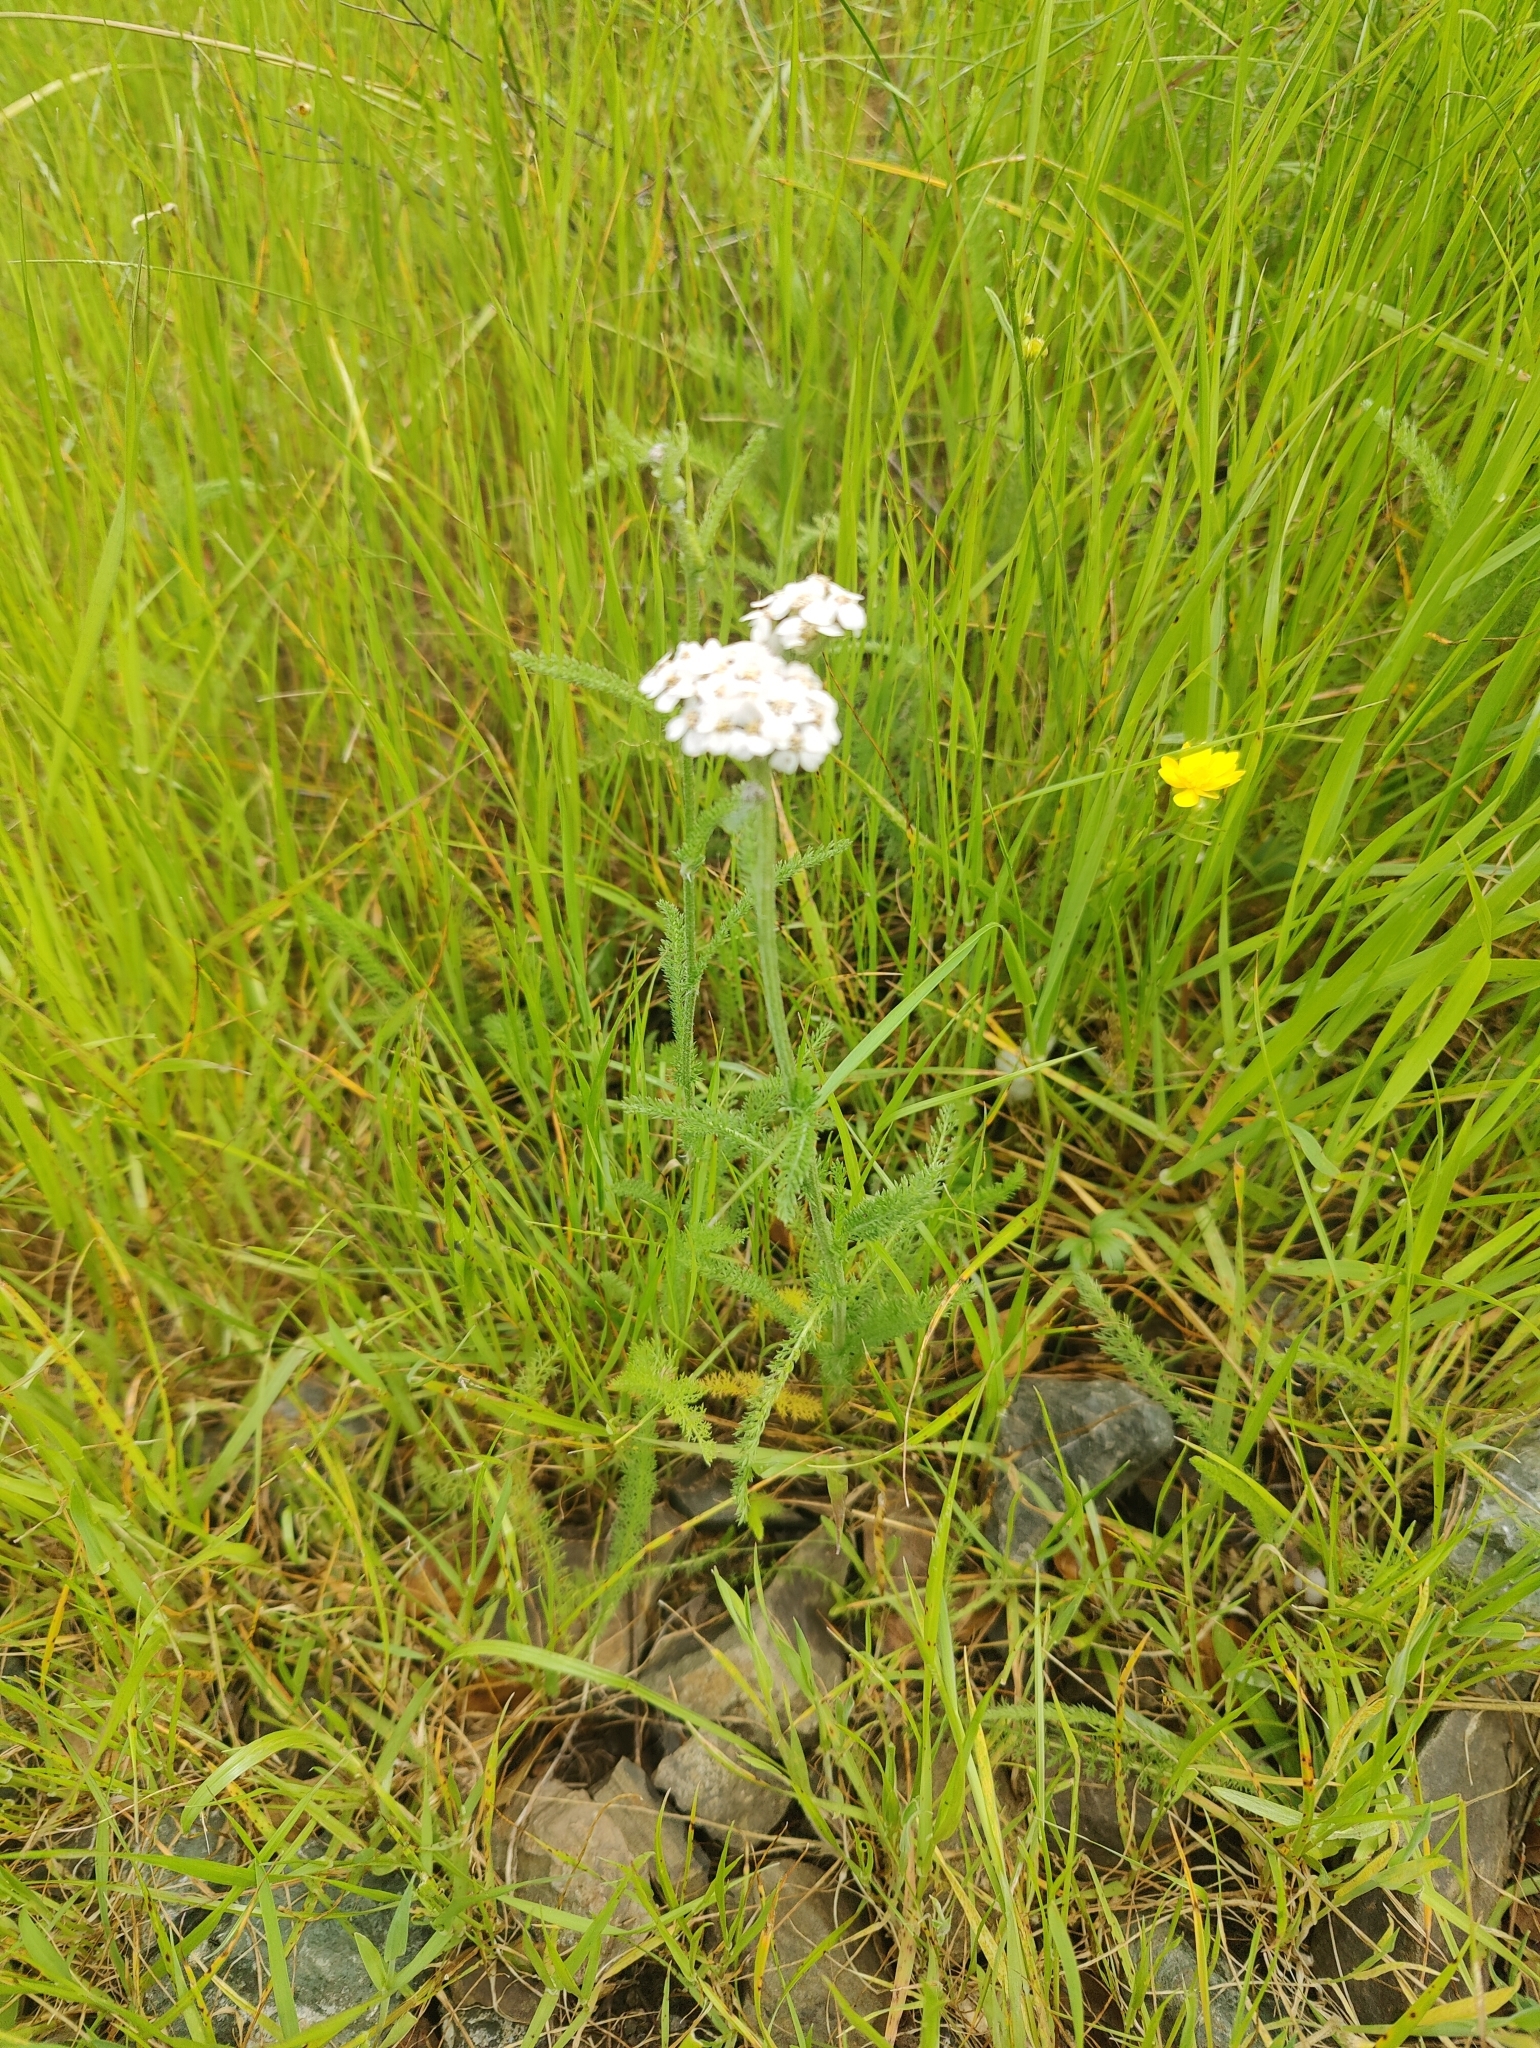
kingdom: Plantae
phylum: Tracheophyta
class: Magnoliopsida
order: Asterales
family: Asteraceae
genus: Achillea
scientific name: Achillea millefolium
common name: Yarrow
